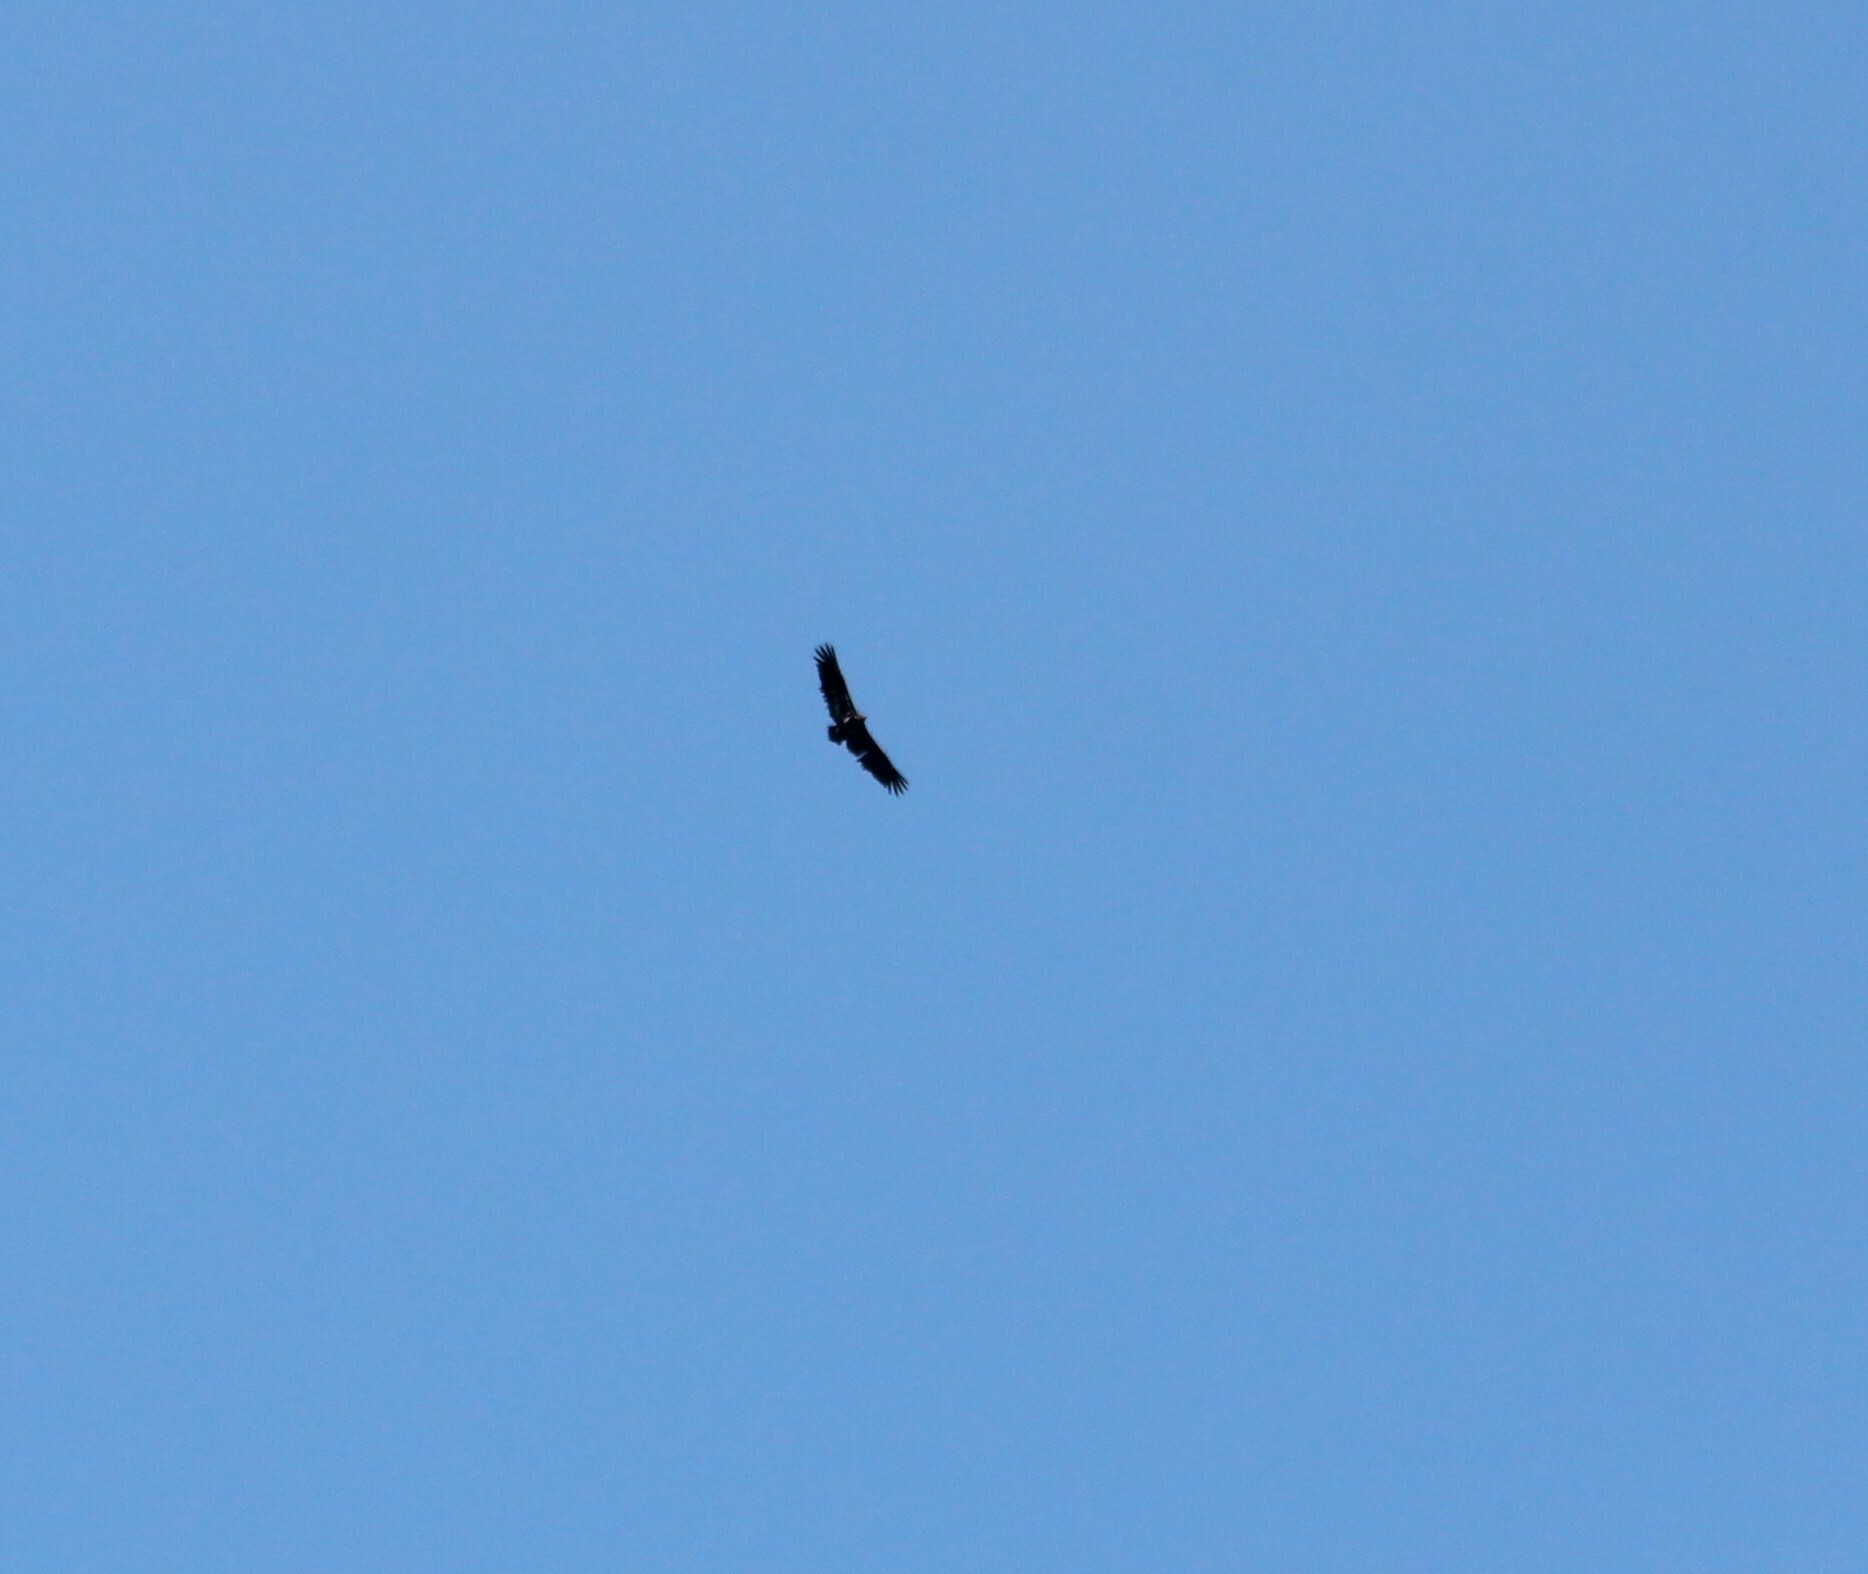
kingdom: Animalia
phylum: Chordata
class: Aves
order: Accipitriformes
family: Accipitridae
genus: Gyps
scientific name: Gyps bengalensis
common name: White-rumped vulture
